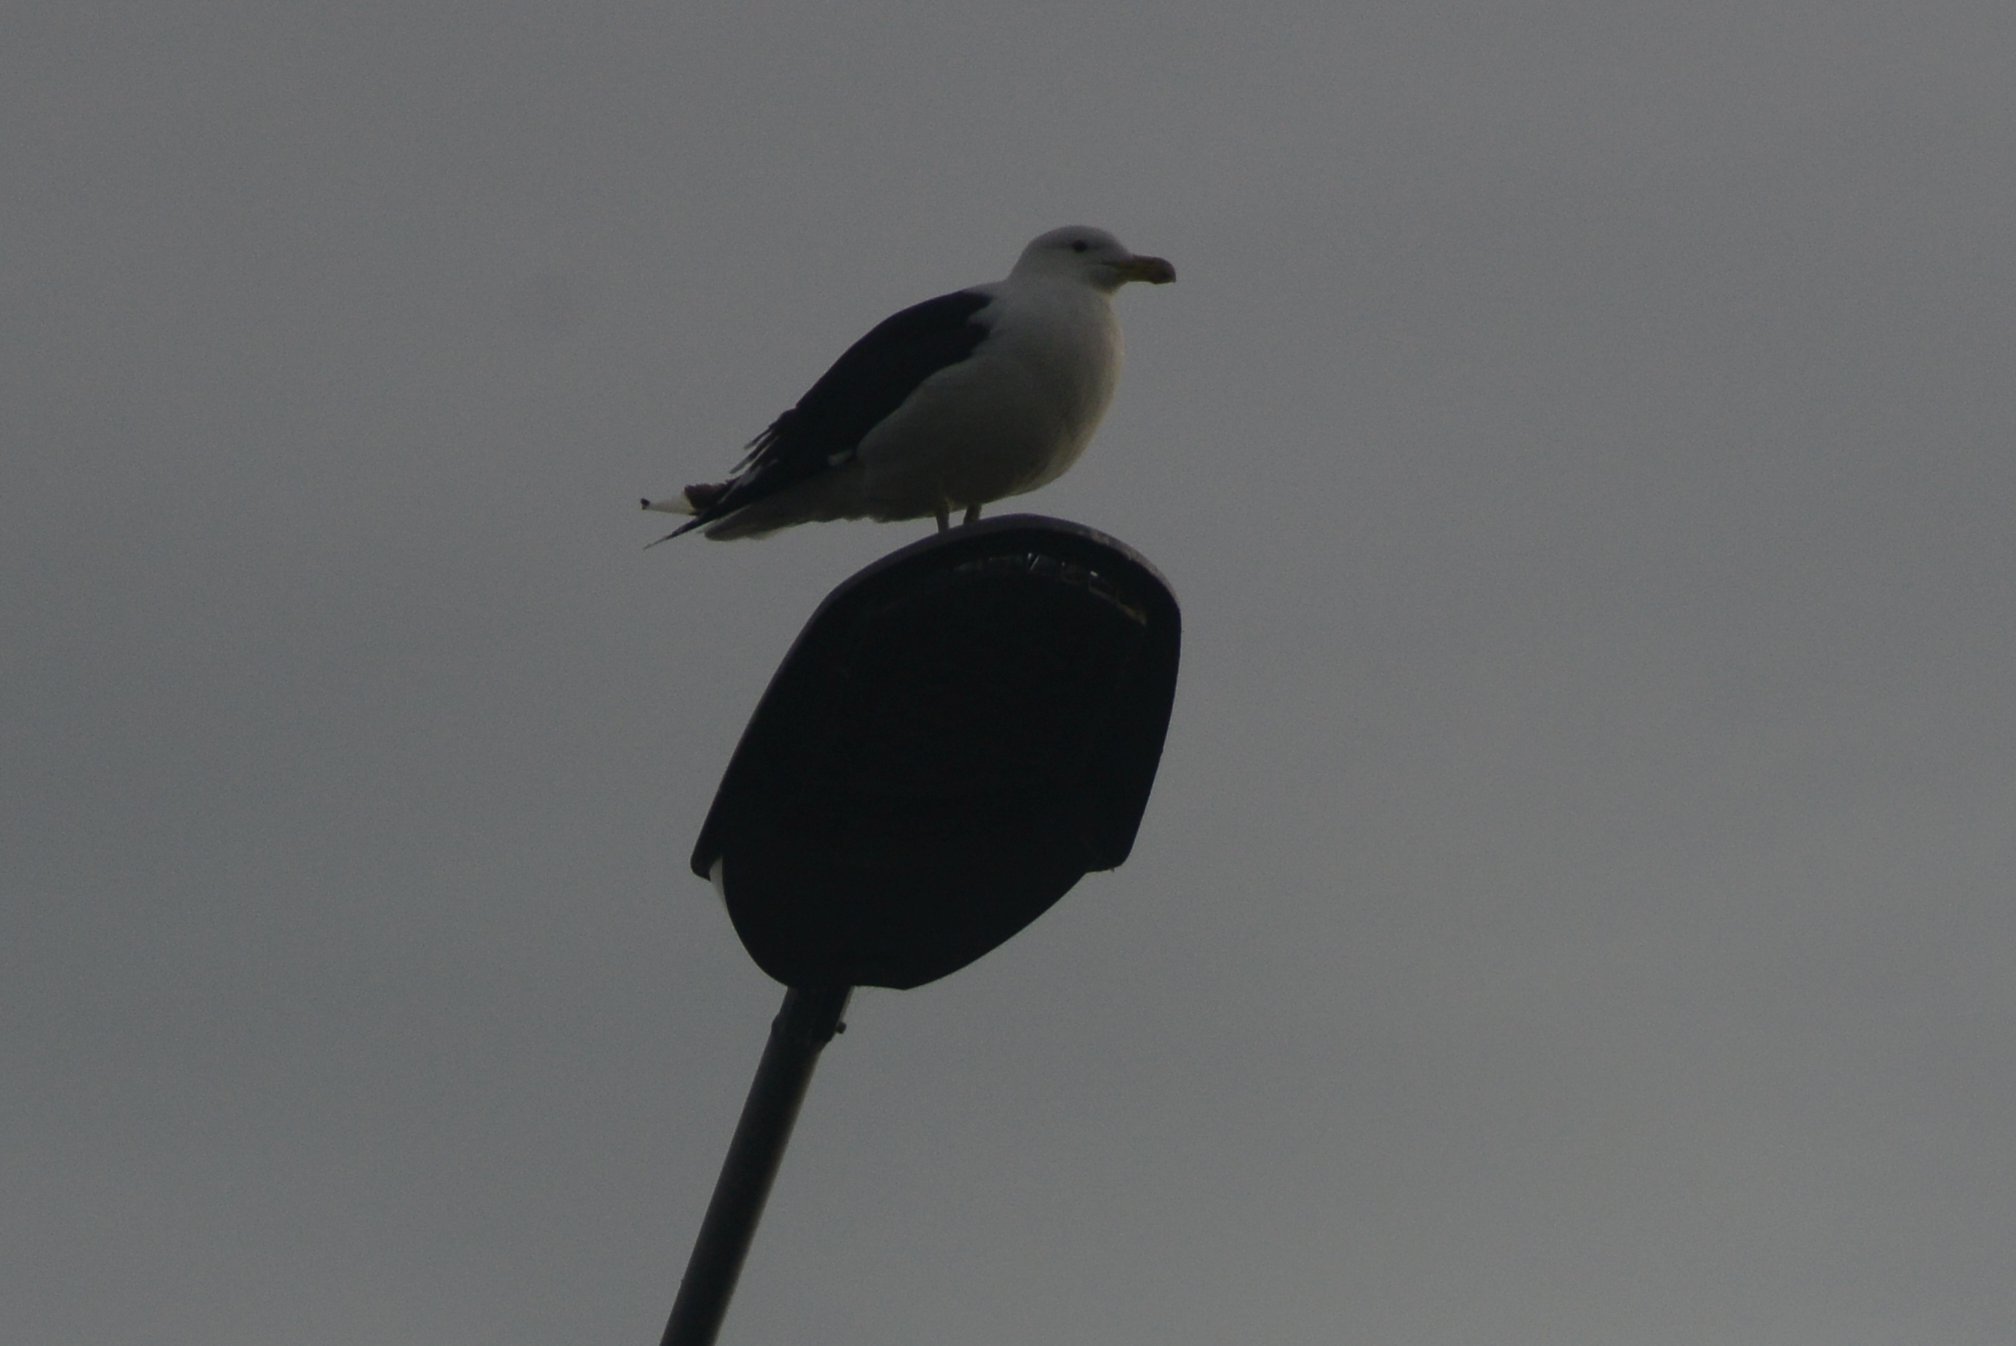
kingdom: Animalia
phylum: Chordata
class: Aves
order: Charadriiformes
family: Laridae
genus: Larus
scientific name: Larus dominicanus
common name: Kelp gull
